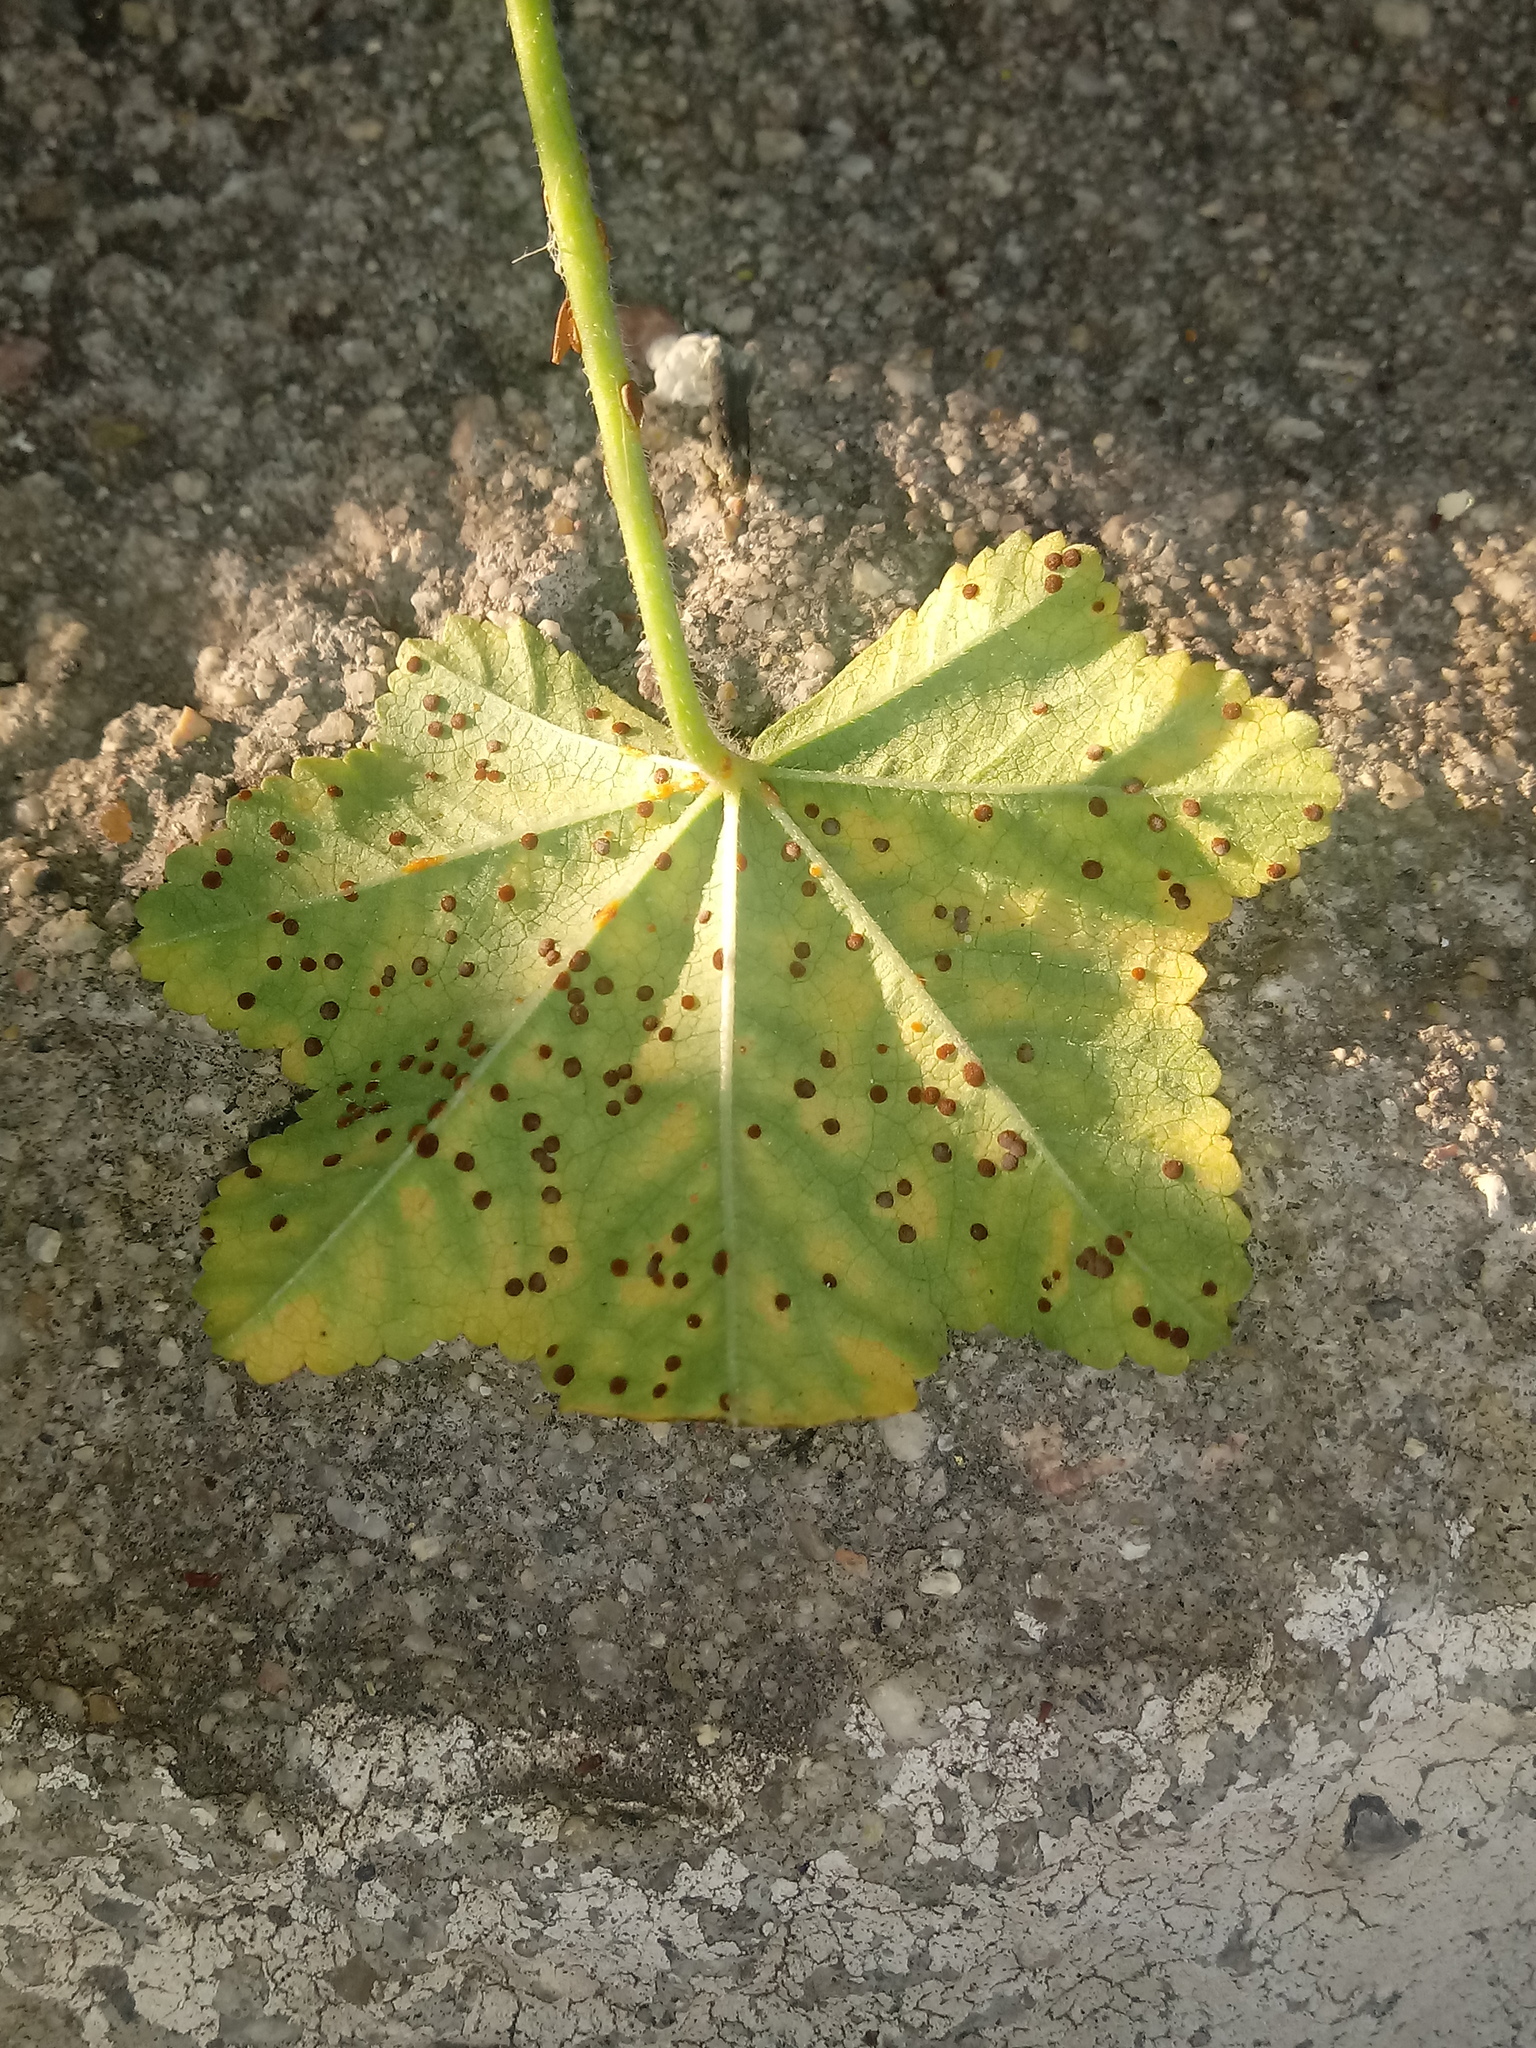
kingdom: Fungi
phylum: Basidiomycota
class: Pucciniomycetes
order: Pucciniales
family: Pucciniaceae
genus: Puccinia
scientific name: Puccinia malvacearum
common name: Hollyhock rust
